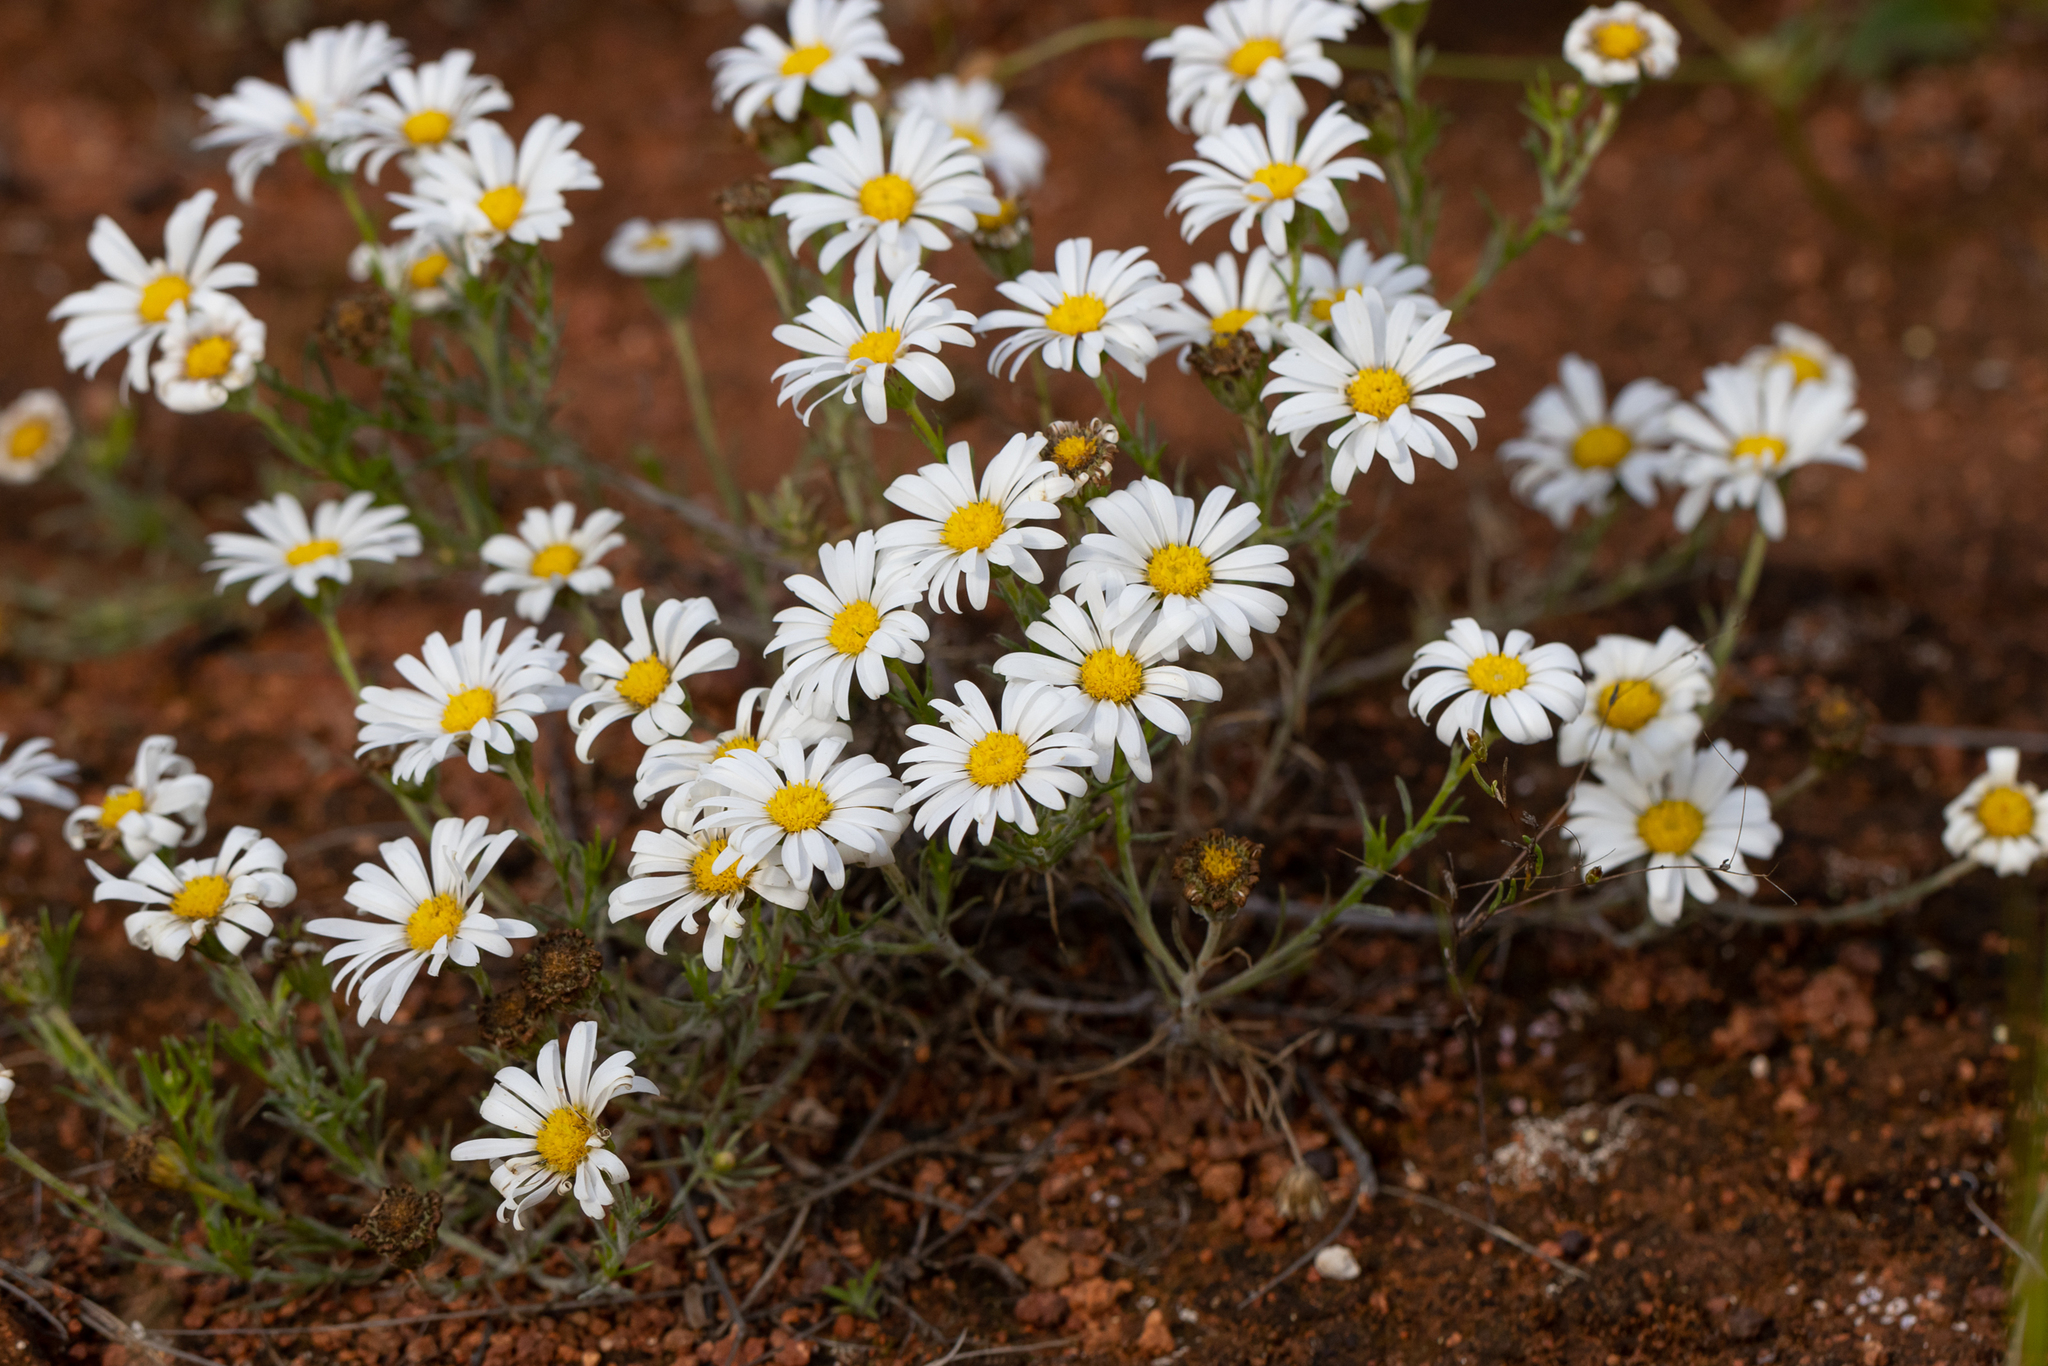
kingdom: Plantae
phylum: Tracheophyta
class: Magnoliopsida
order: Asterales
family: Asteraceae
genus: Minuria
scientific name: Minuria leptophylla
